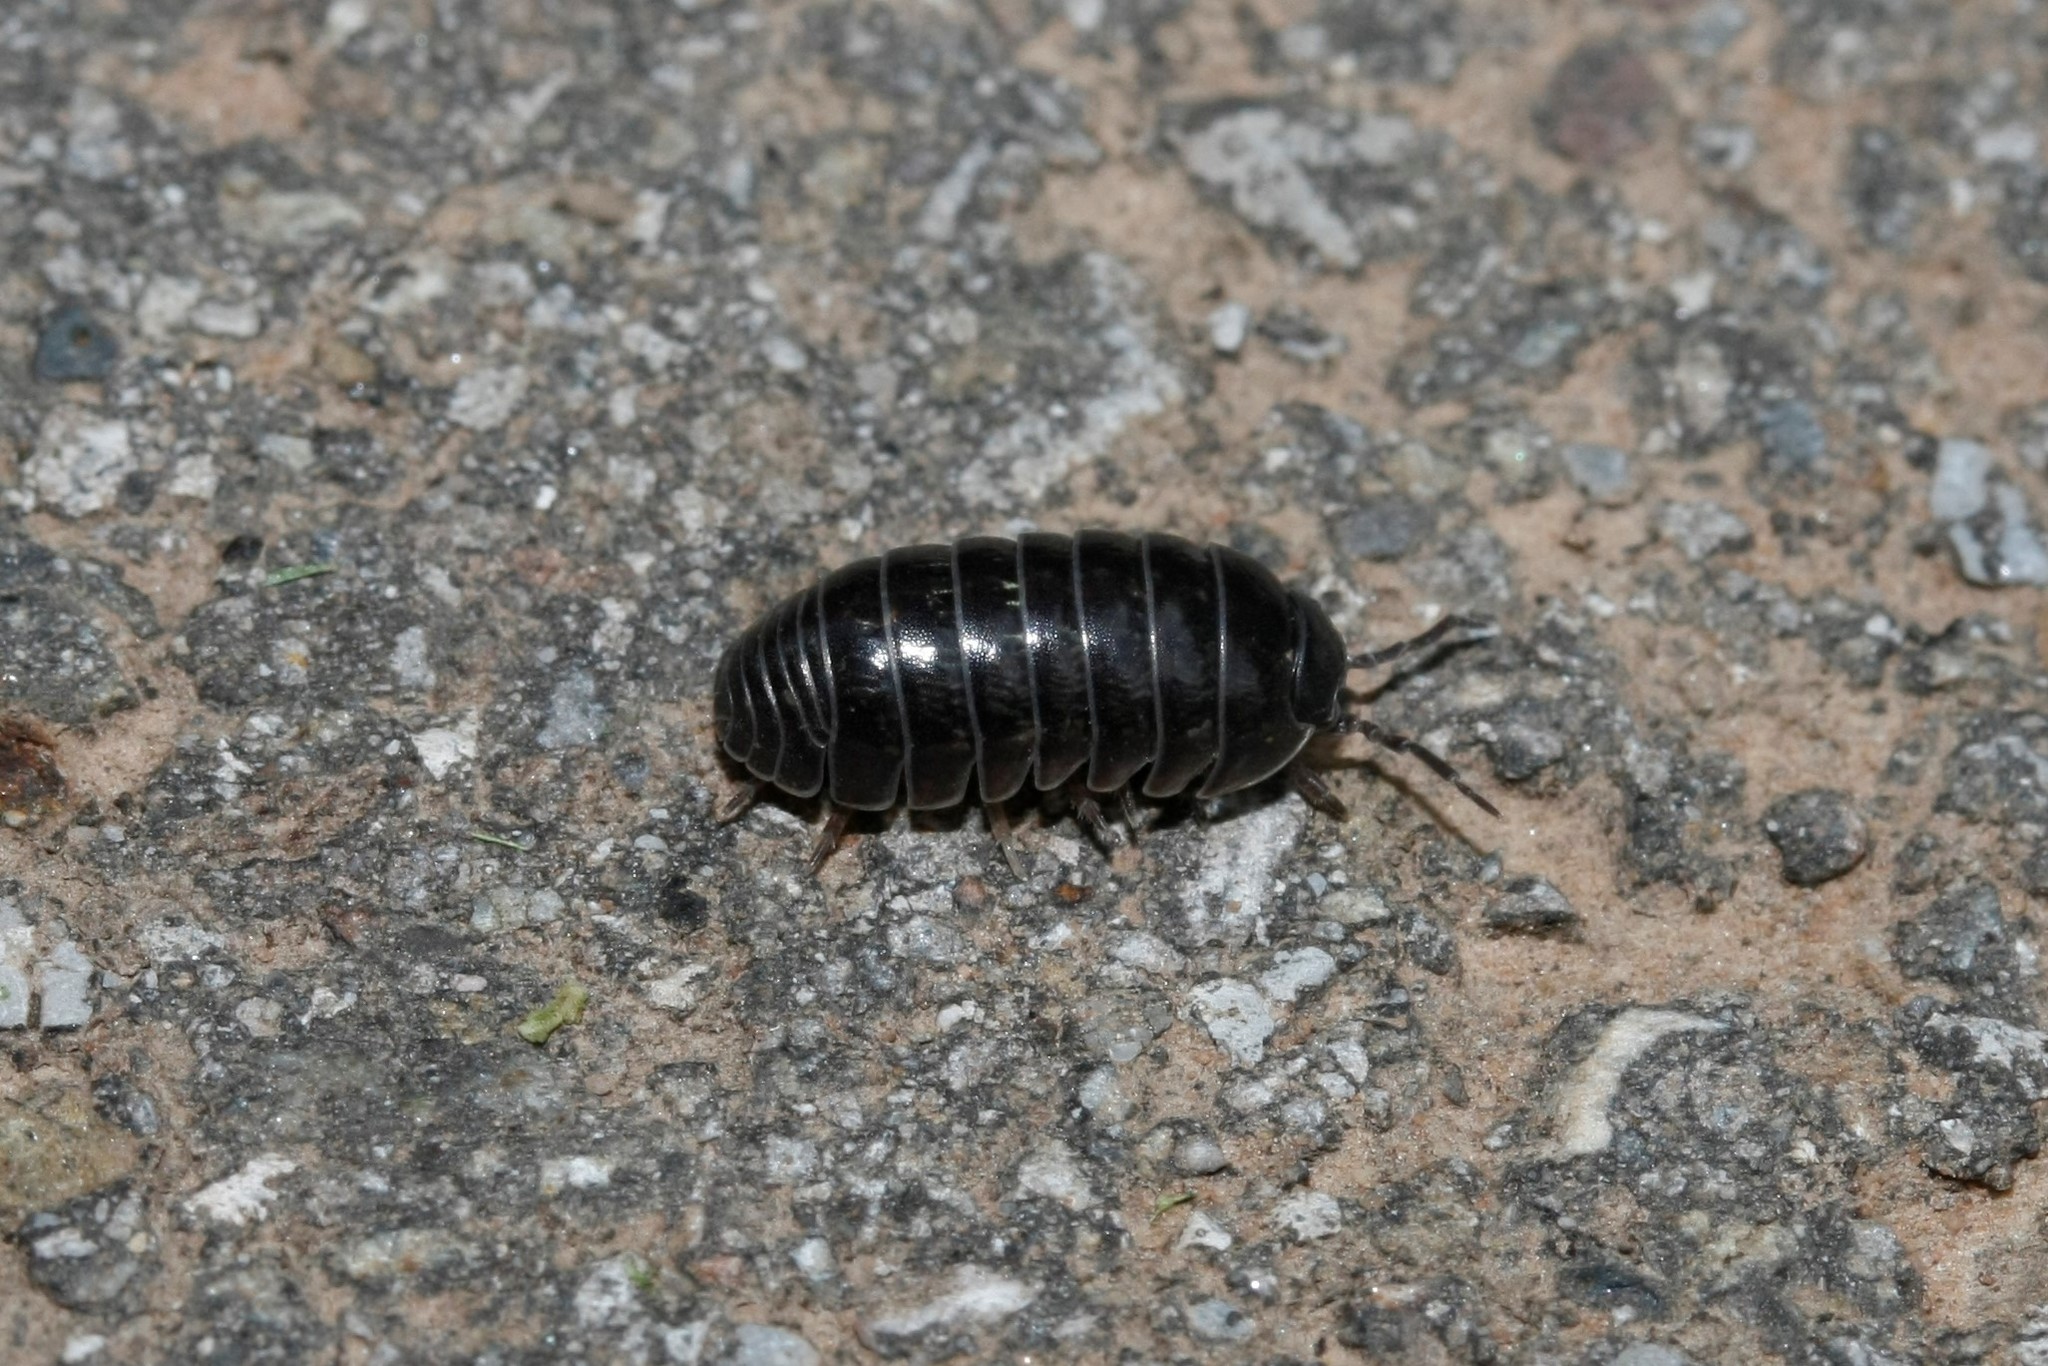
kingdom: Animalia
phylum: Arthropoda
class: Malacostraca
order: Isopoda
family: Armadillidiidae
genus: Armadillidium
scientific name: Armadillidium vulgare
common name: Common pill woodlouse
